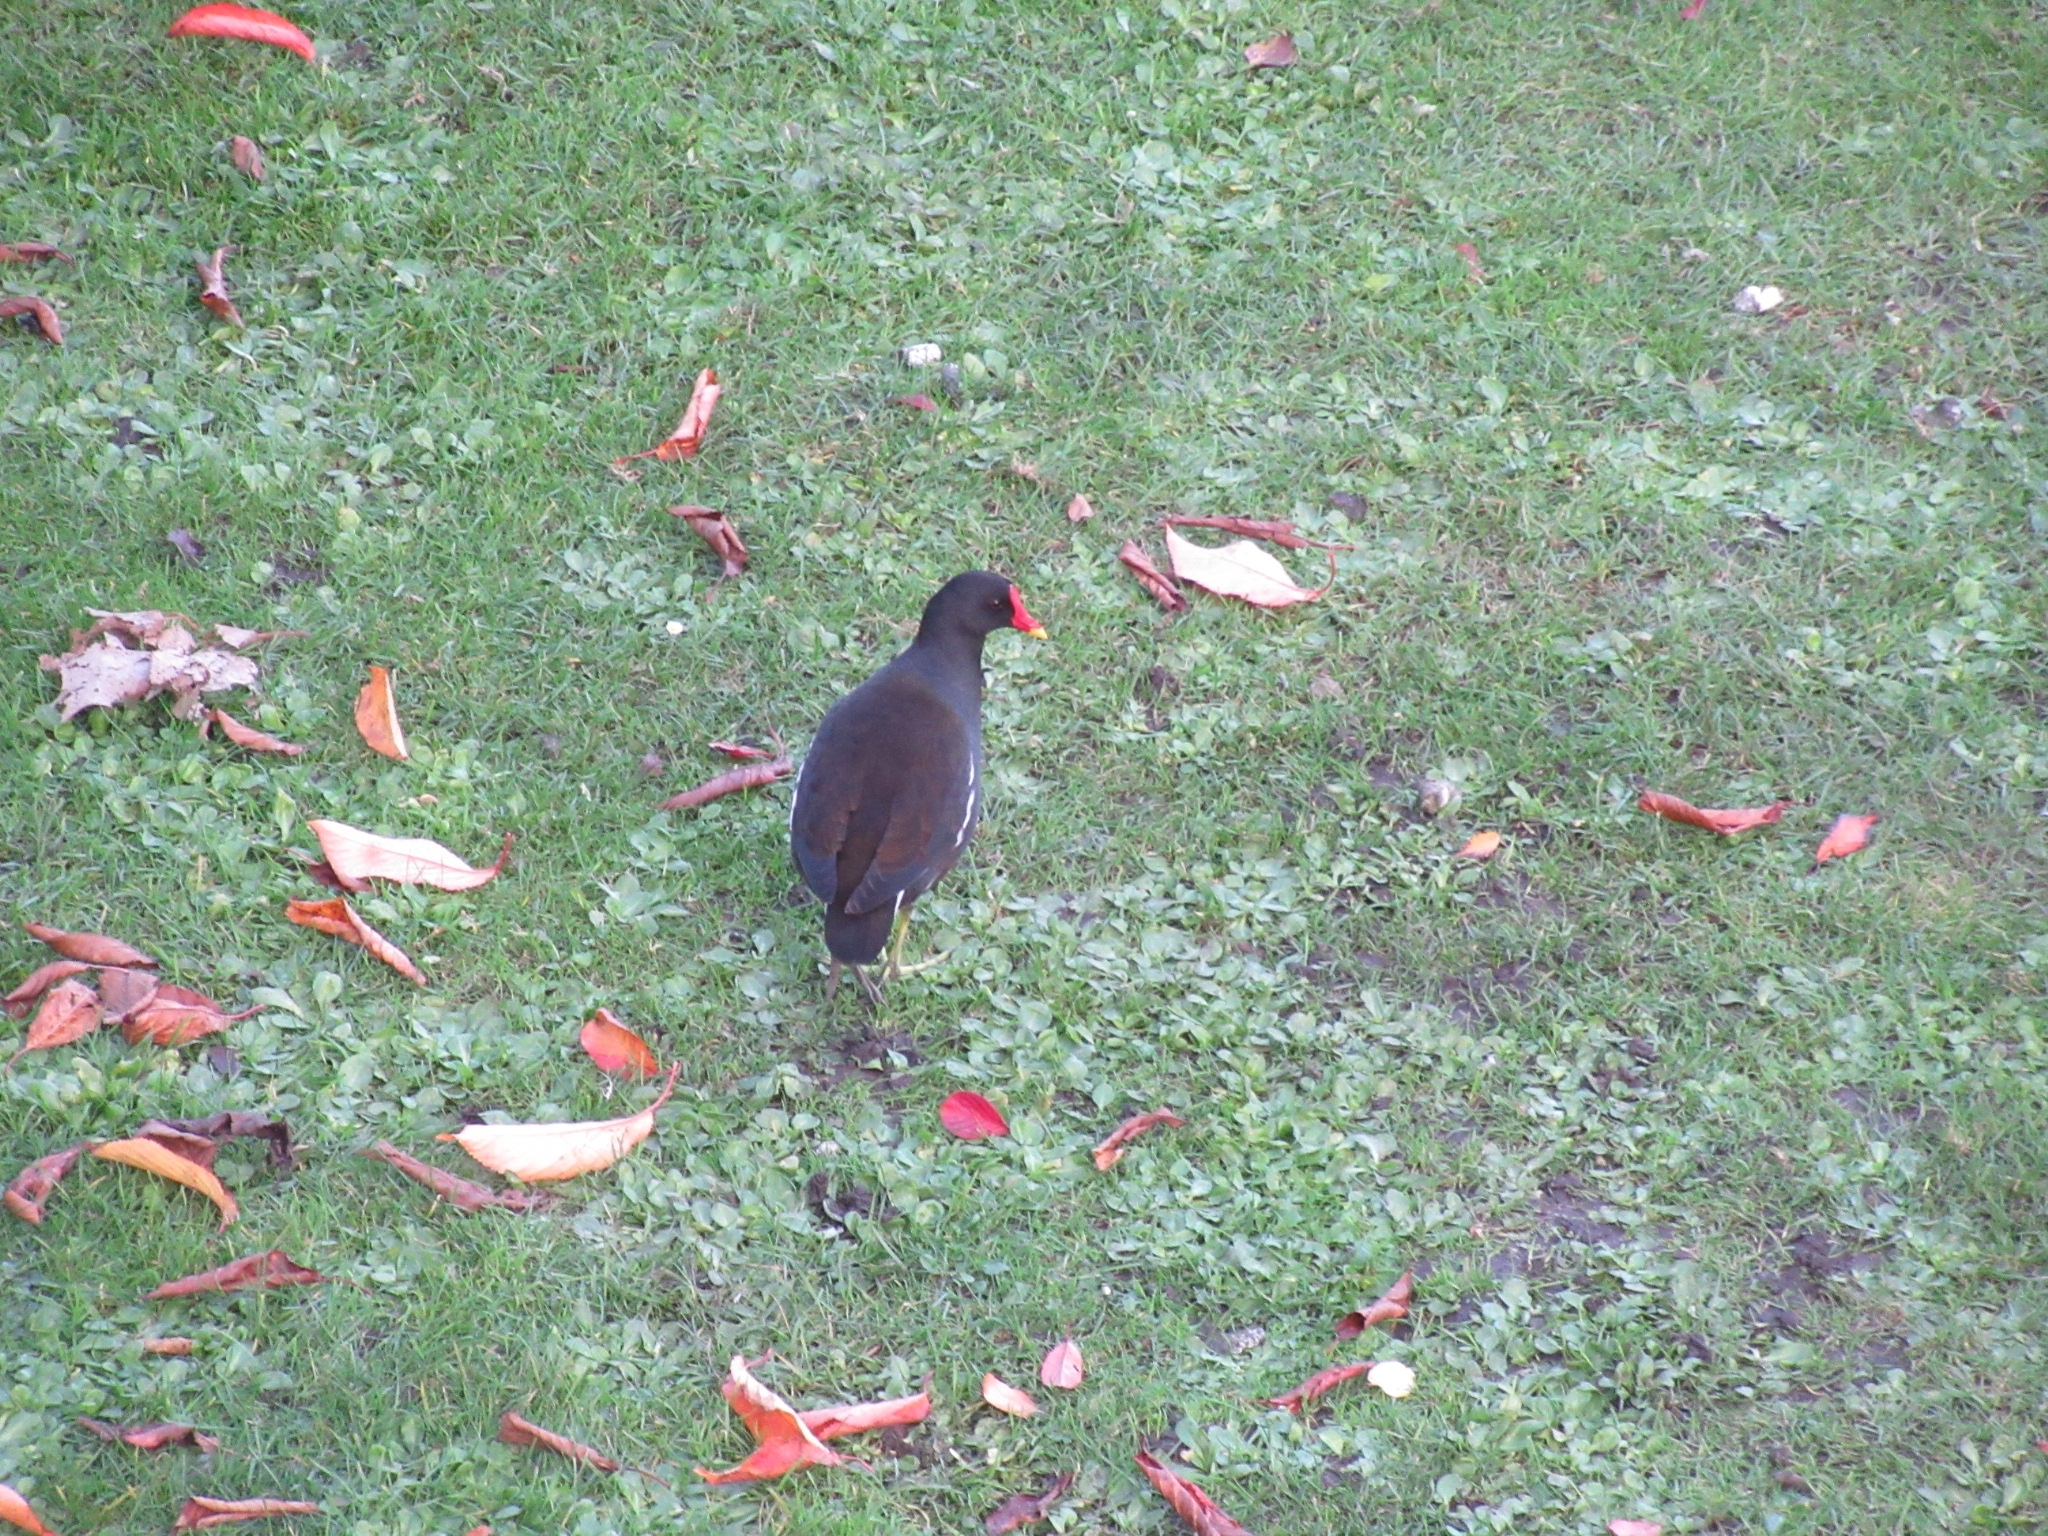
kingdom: Animalia
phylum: Chordata
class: Aves
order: Gruiformes
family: Rallidae
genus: Gallinula
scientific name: Gallinula chloropus
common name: Common moorhen
